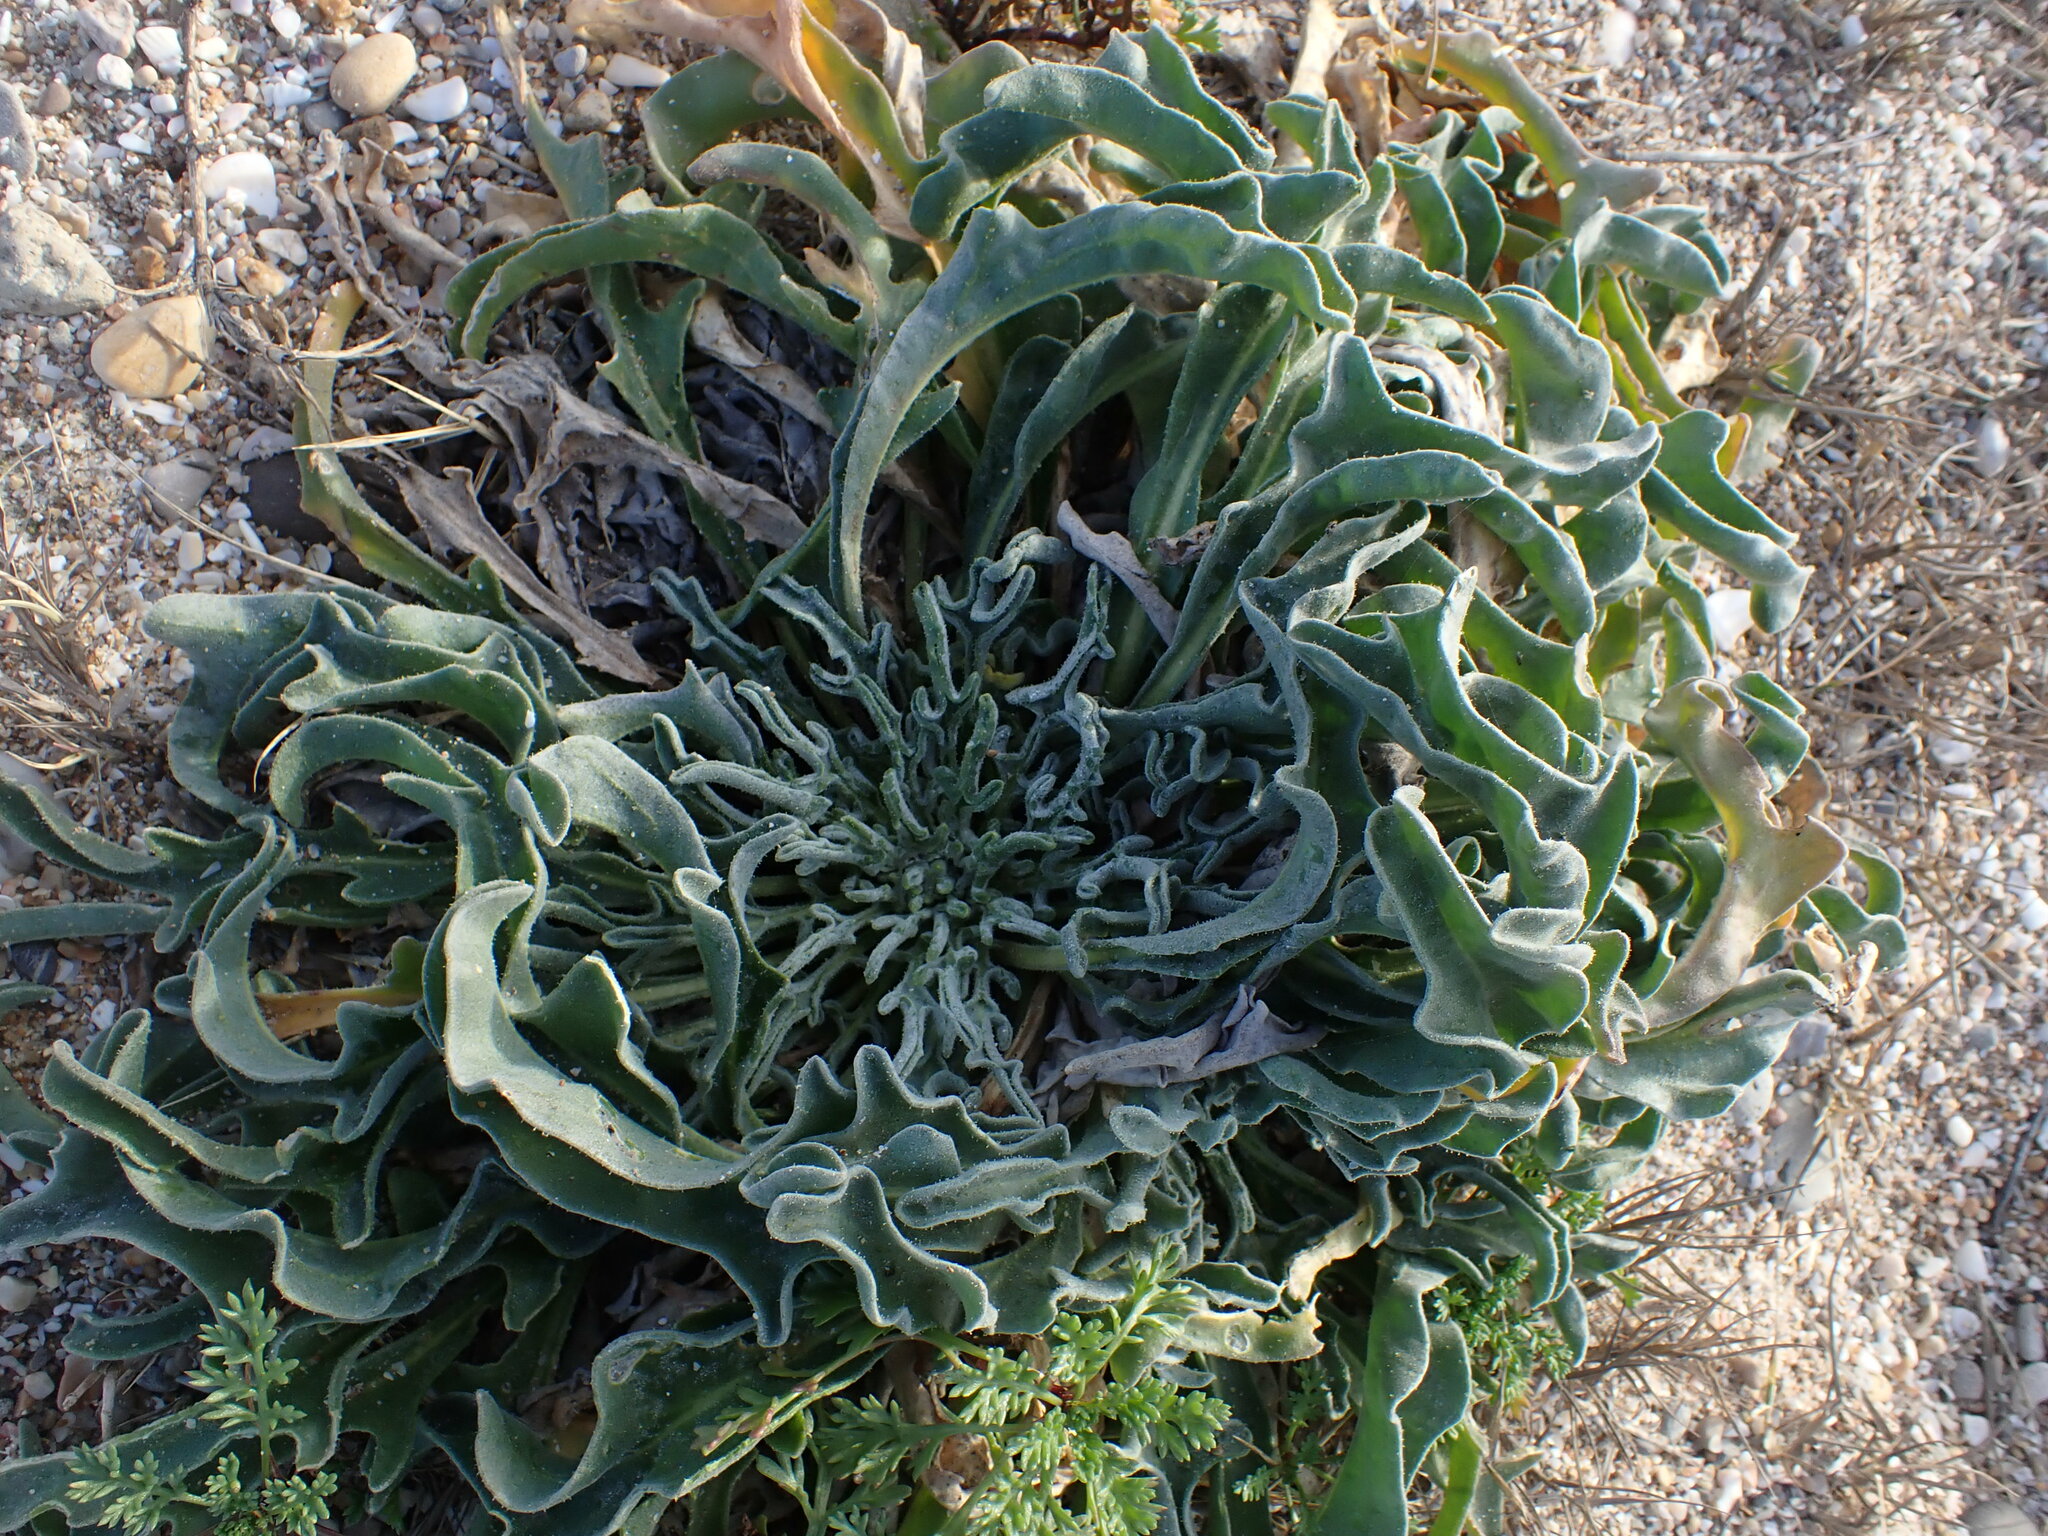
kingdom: Plantae
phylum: Tracheophyta
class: Magnoliopsida
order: Brassicales
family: Brassicaceae
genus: Matthiola
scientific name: Matthiola sinuata
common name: Sea stock
